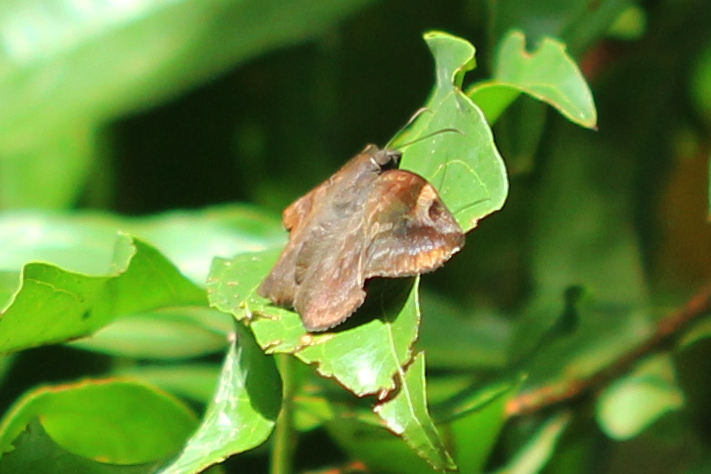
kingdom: Animalia
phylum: Arthropoda
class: Insecta
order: Lepidoptera
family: Hesperiidae
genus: Achlyodes
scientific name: Achlyodes thraso
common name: Sickle-winged skipper
